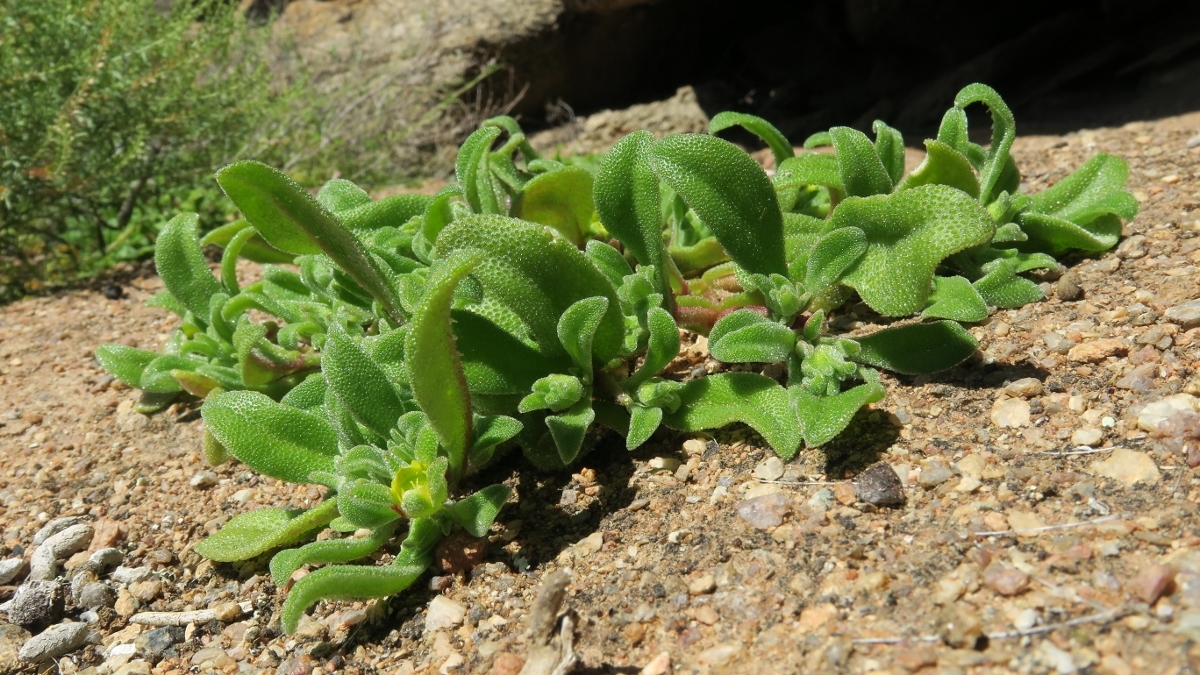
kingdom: Plantae
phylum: Tracheophyta
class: Magnoliopsida
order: Caryophyllales
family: Aizoaceae
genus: Cleretum
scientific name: Cleretum papulosum
